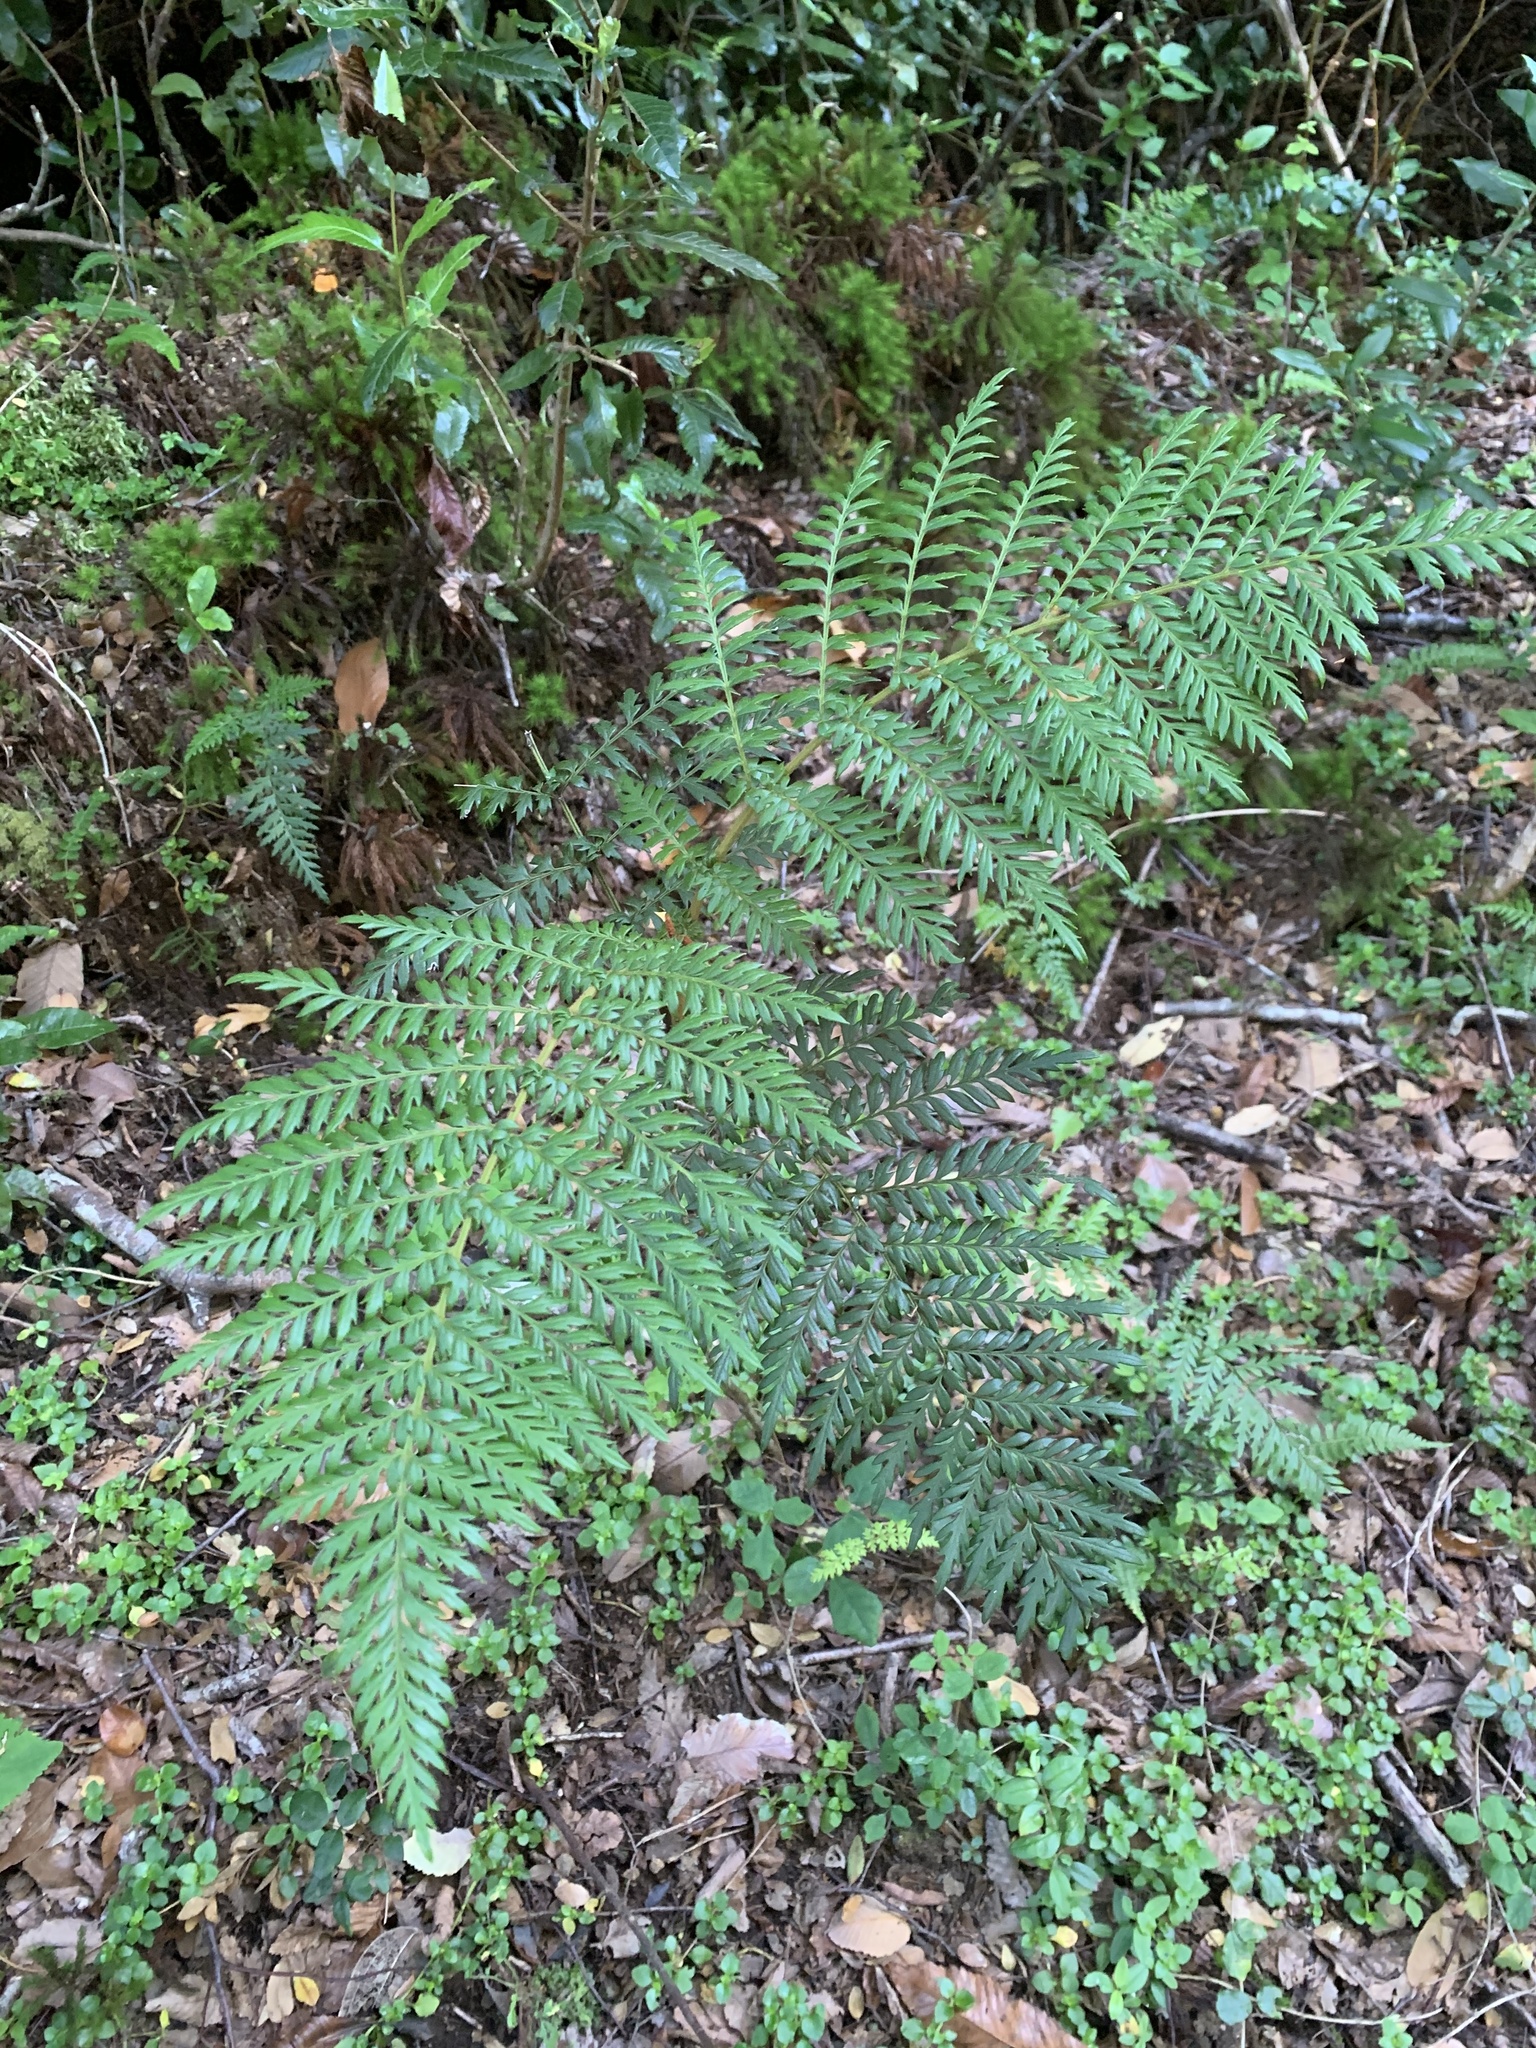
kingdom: Plantae
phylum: Tracheophyta
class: Magnoliopsida
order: Proteales
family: Proteaceae
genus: Lomatia
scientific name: Lomatia ferruginea
